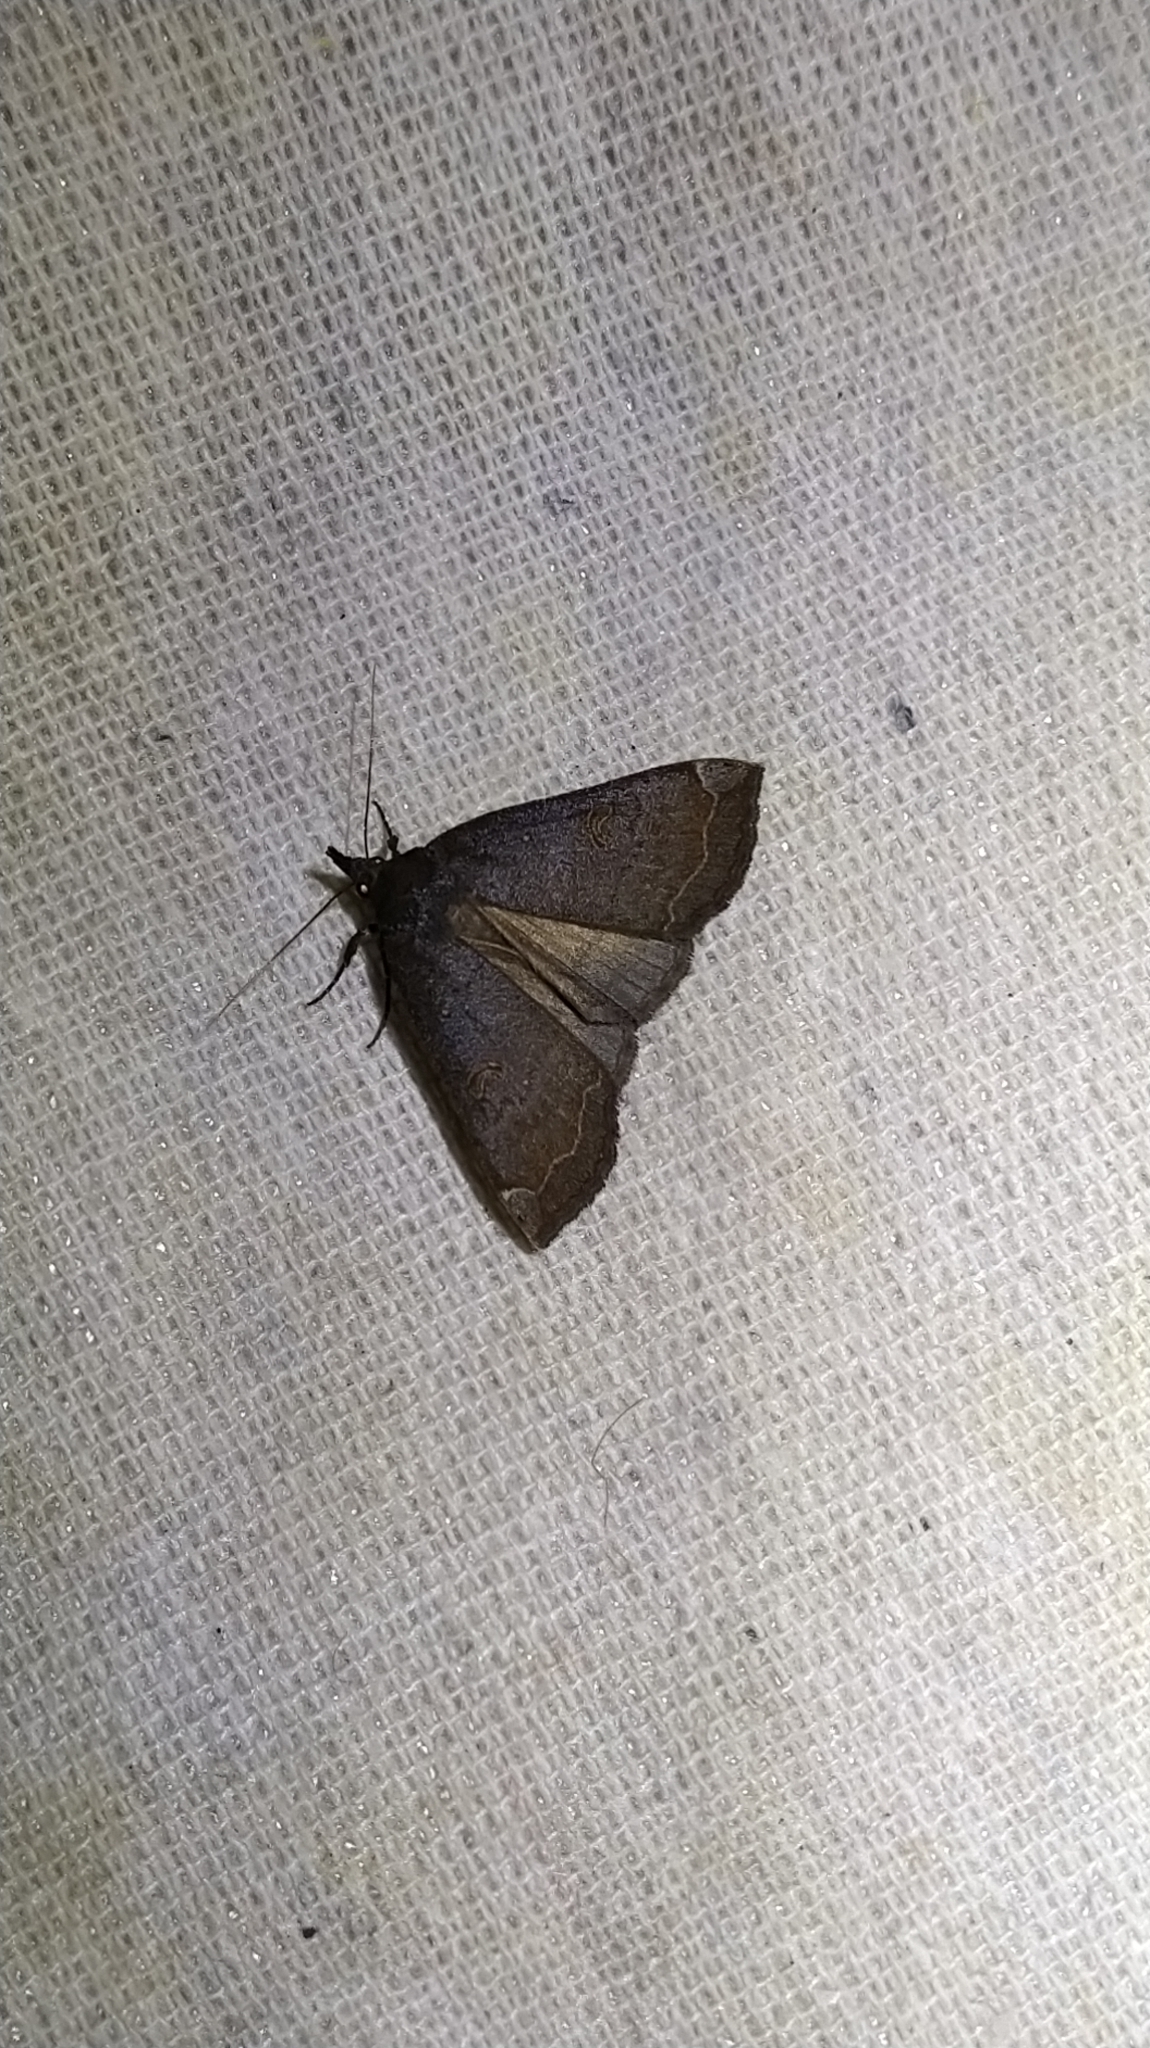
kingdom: Animalia
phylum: Arthropoda
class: Insecta
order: Lepidoptera
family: Erebidae
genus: Rhapsa
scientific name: Rhapsa scotosialis
